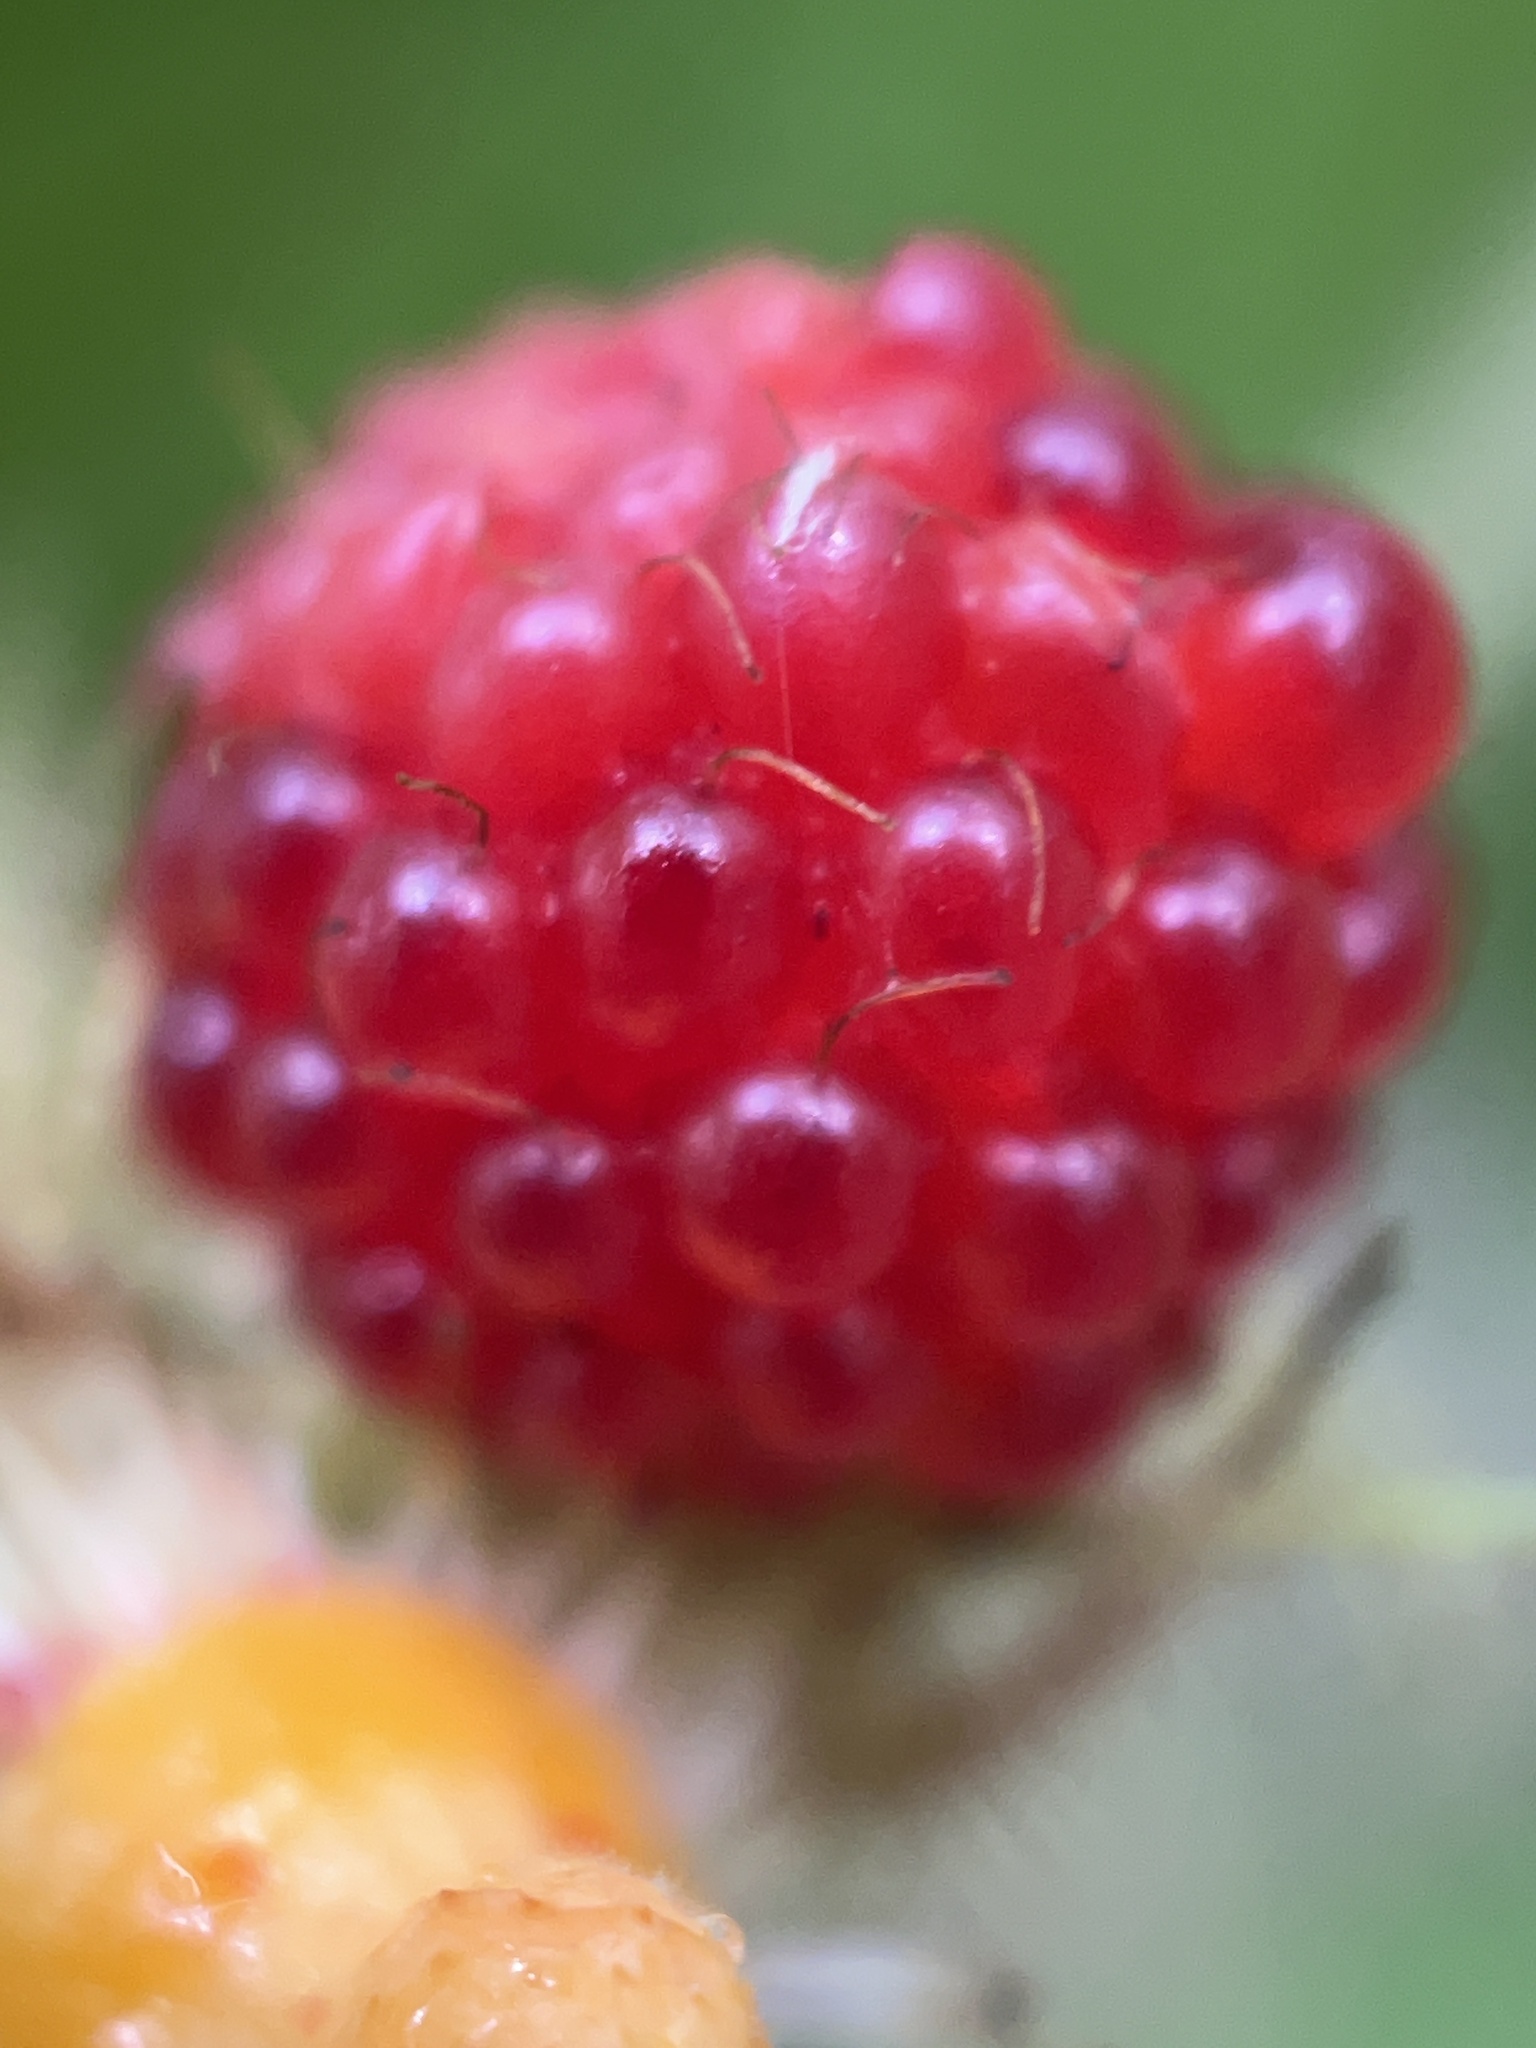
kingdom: Plantae
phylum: Tracheophyta
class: Magnoliopsida
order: Rosales
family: Rosaceae
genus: Rubus
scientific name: Rubus phoenicolasius
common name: Japanese wineberry
